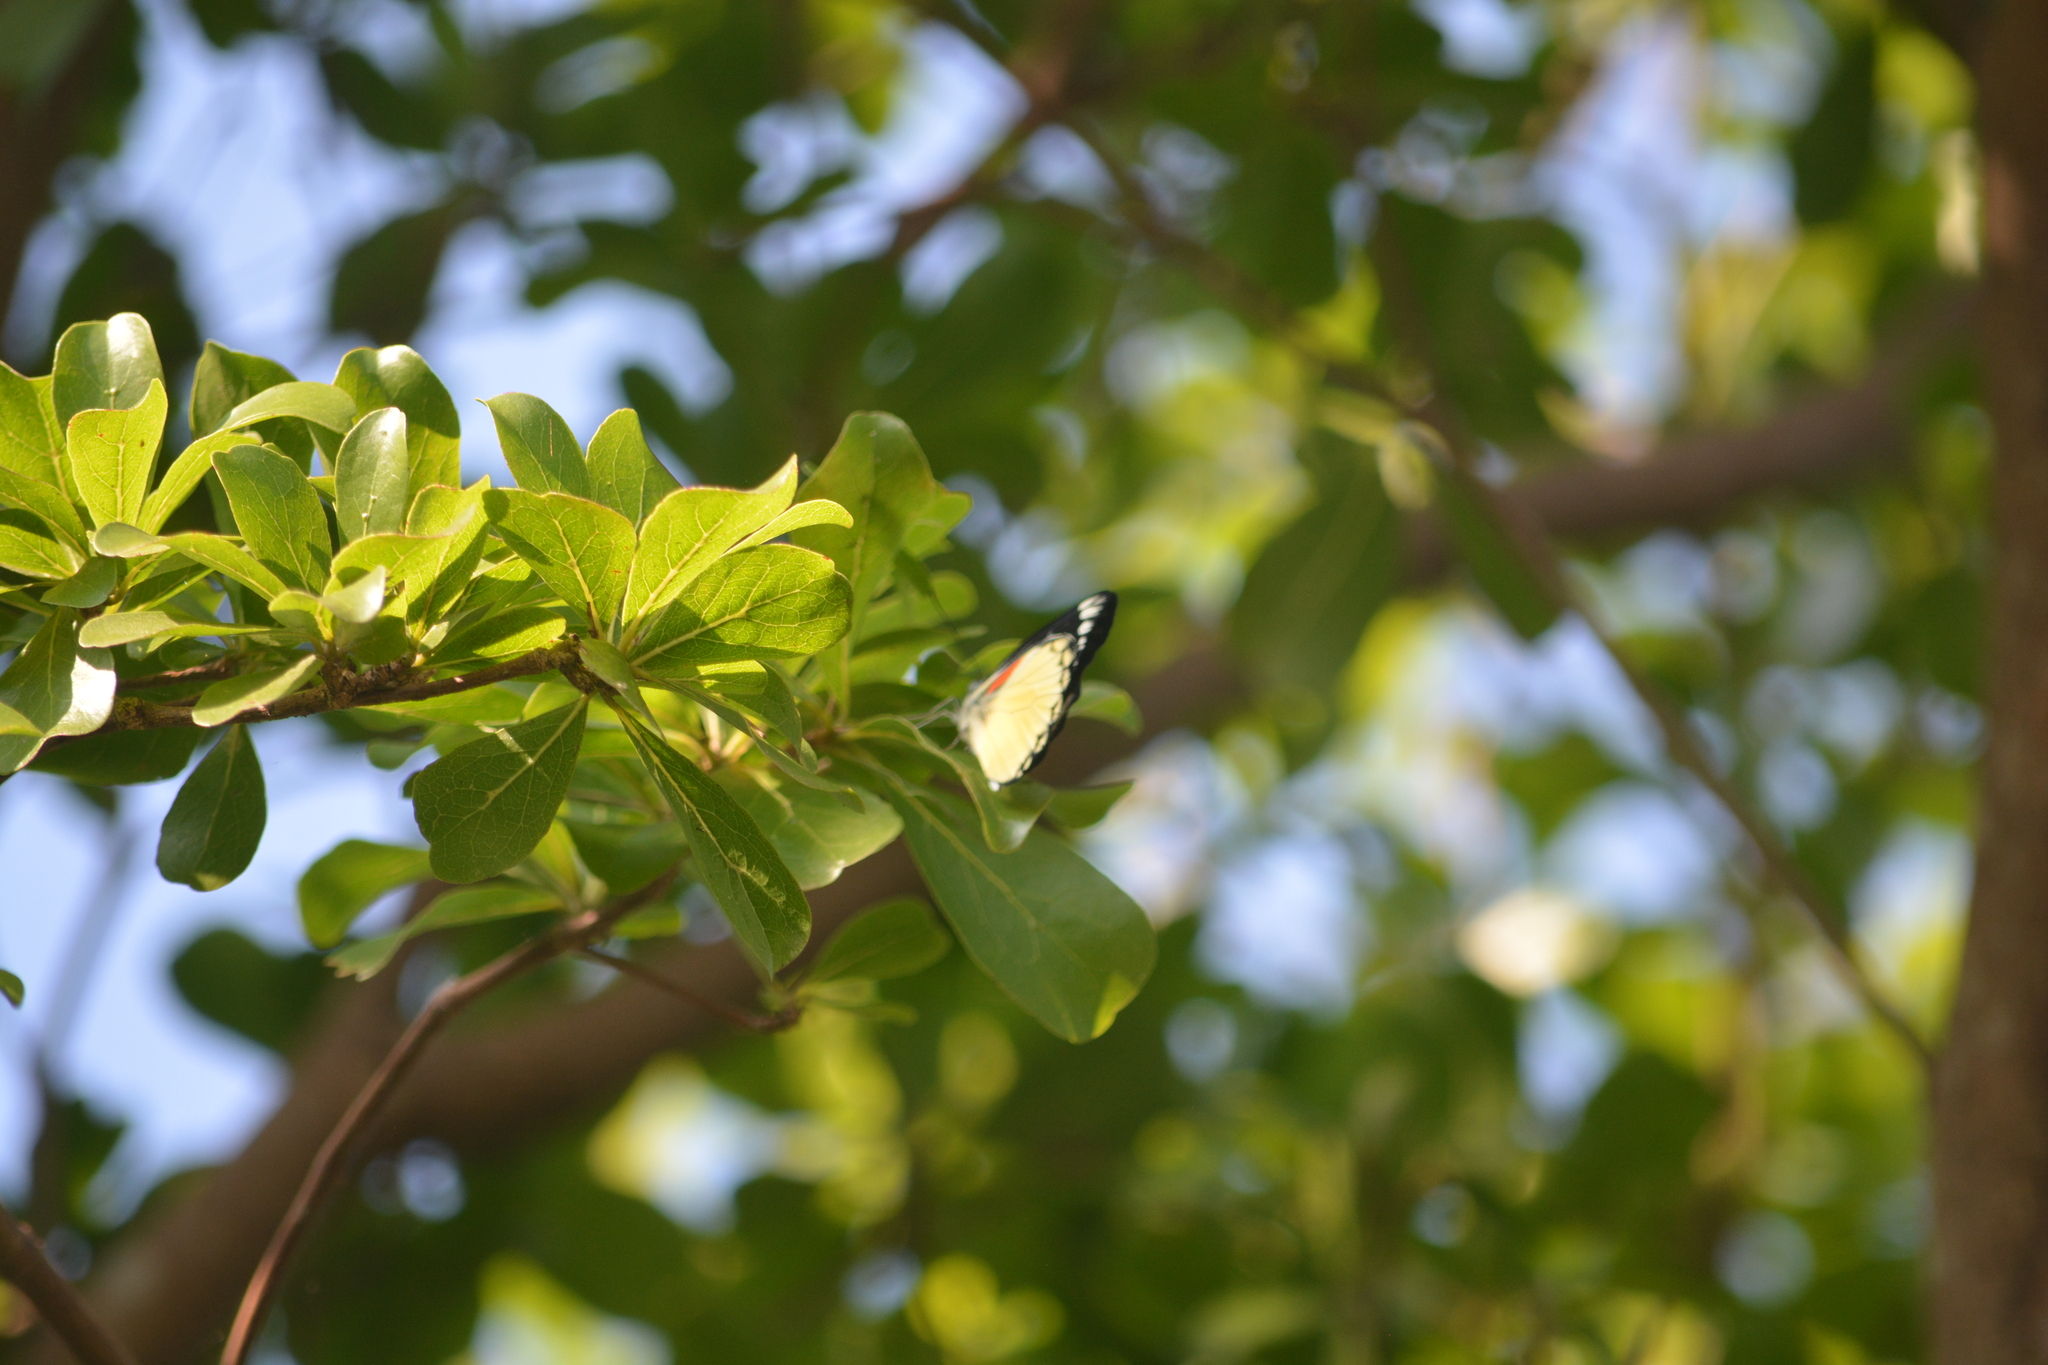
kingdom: Animalia
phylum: Arthropoda
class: Insecta
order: Lepidoptera
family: Pieridae
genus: Delias
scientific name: Delias belisama
